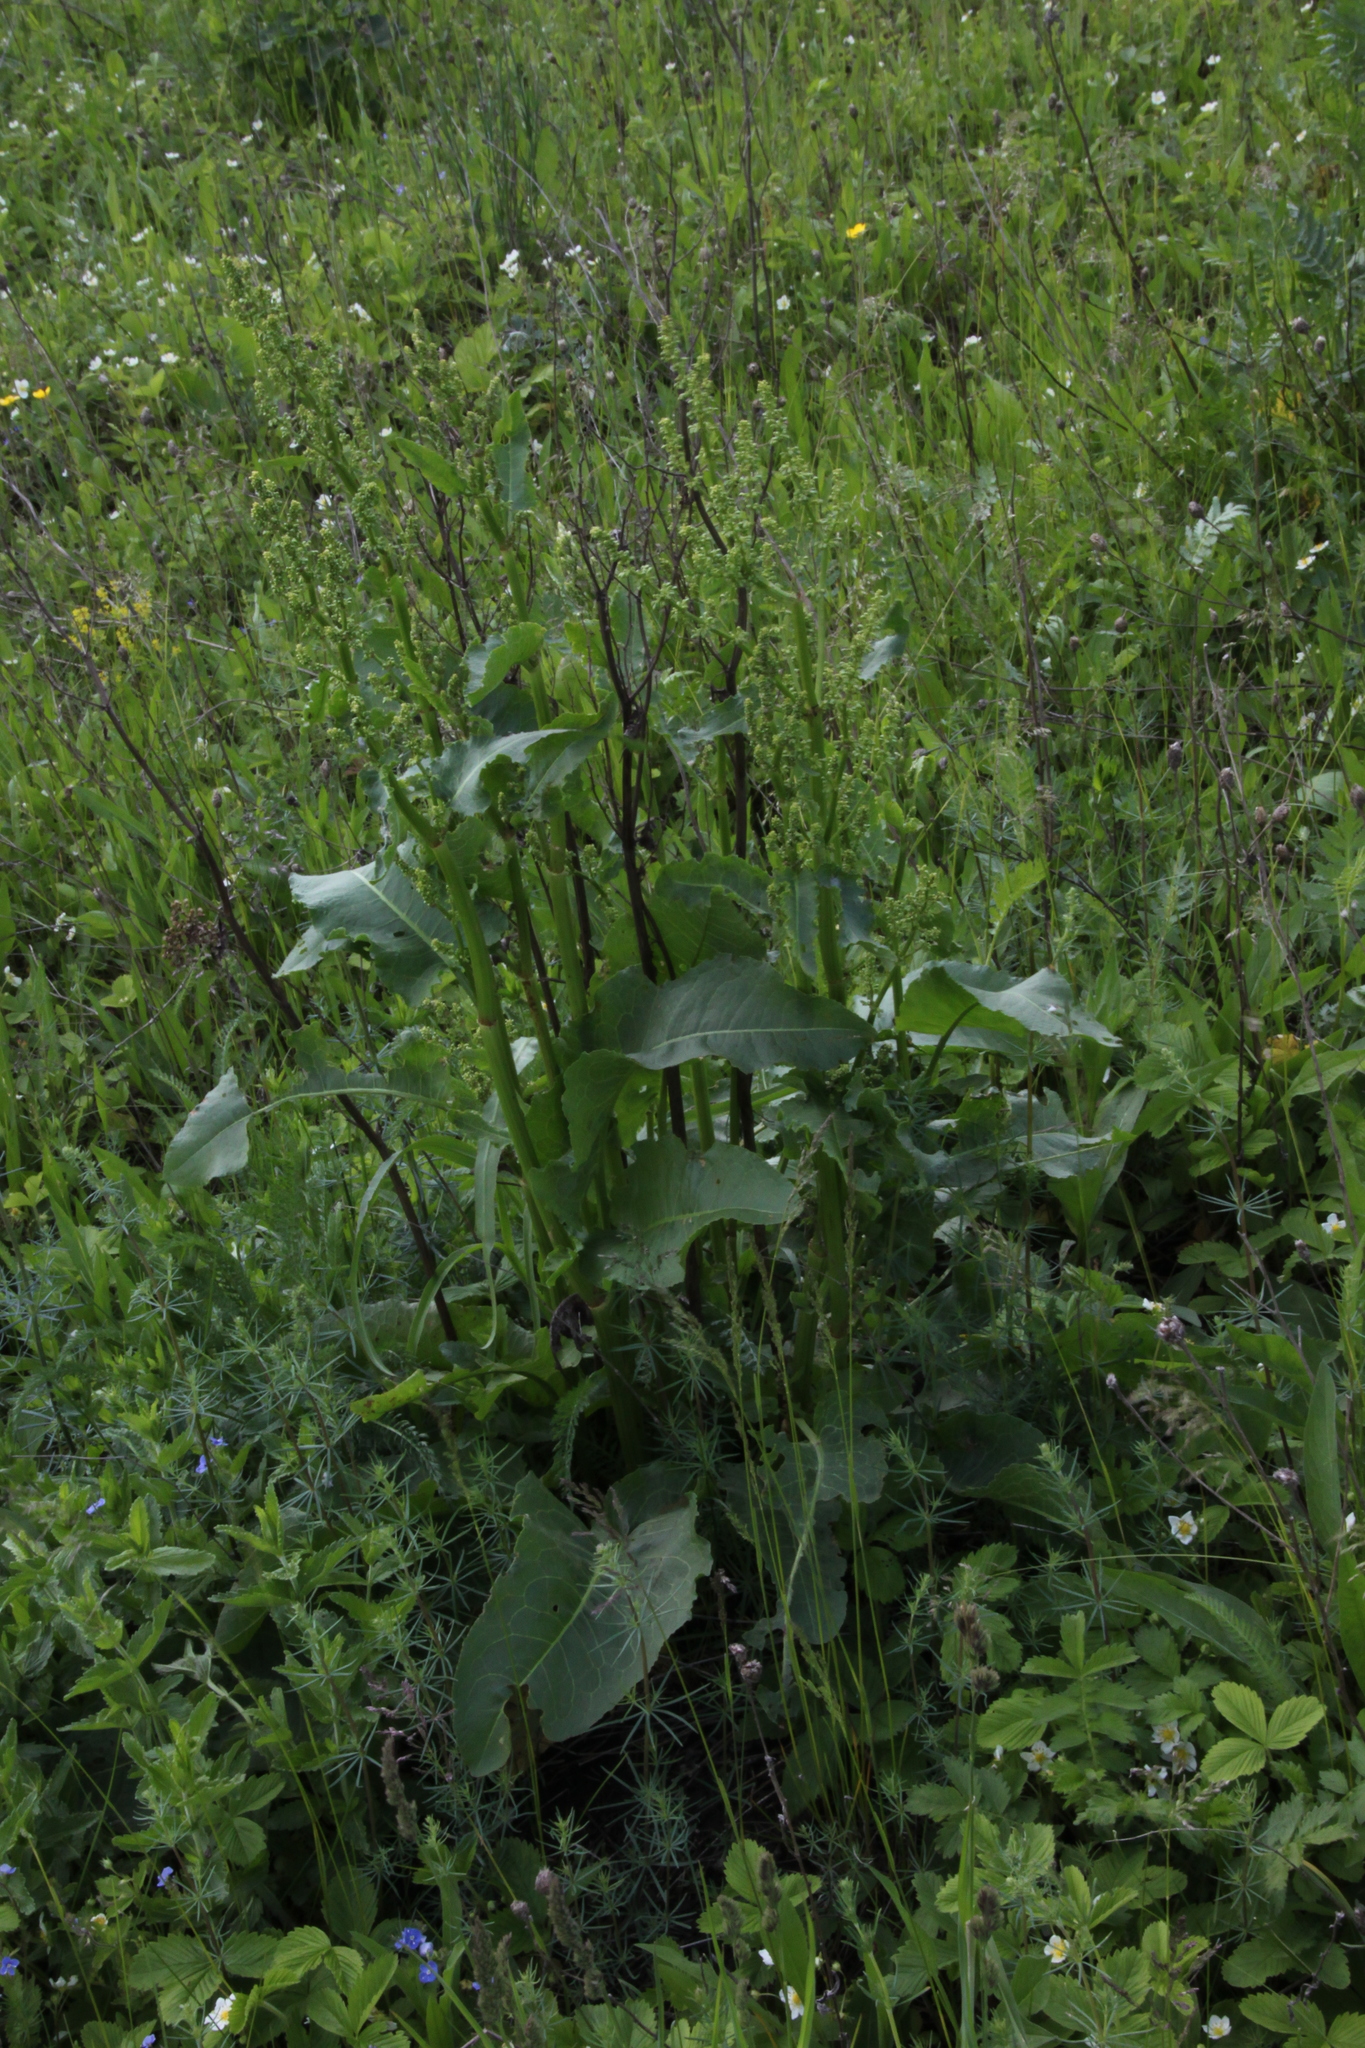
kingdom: Plantae
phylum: Tracheophyta
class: Magnoliopsida
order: Caryophyllales
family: Polygonaceae
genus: Rumex
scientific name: Rumex confertus
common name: Russian dock
